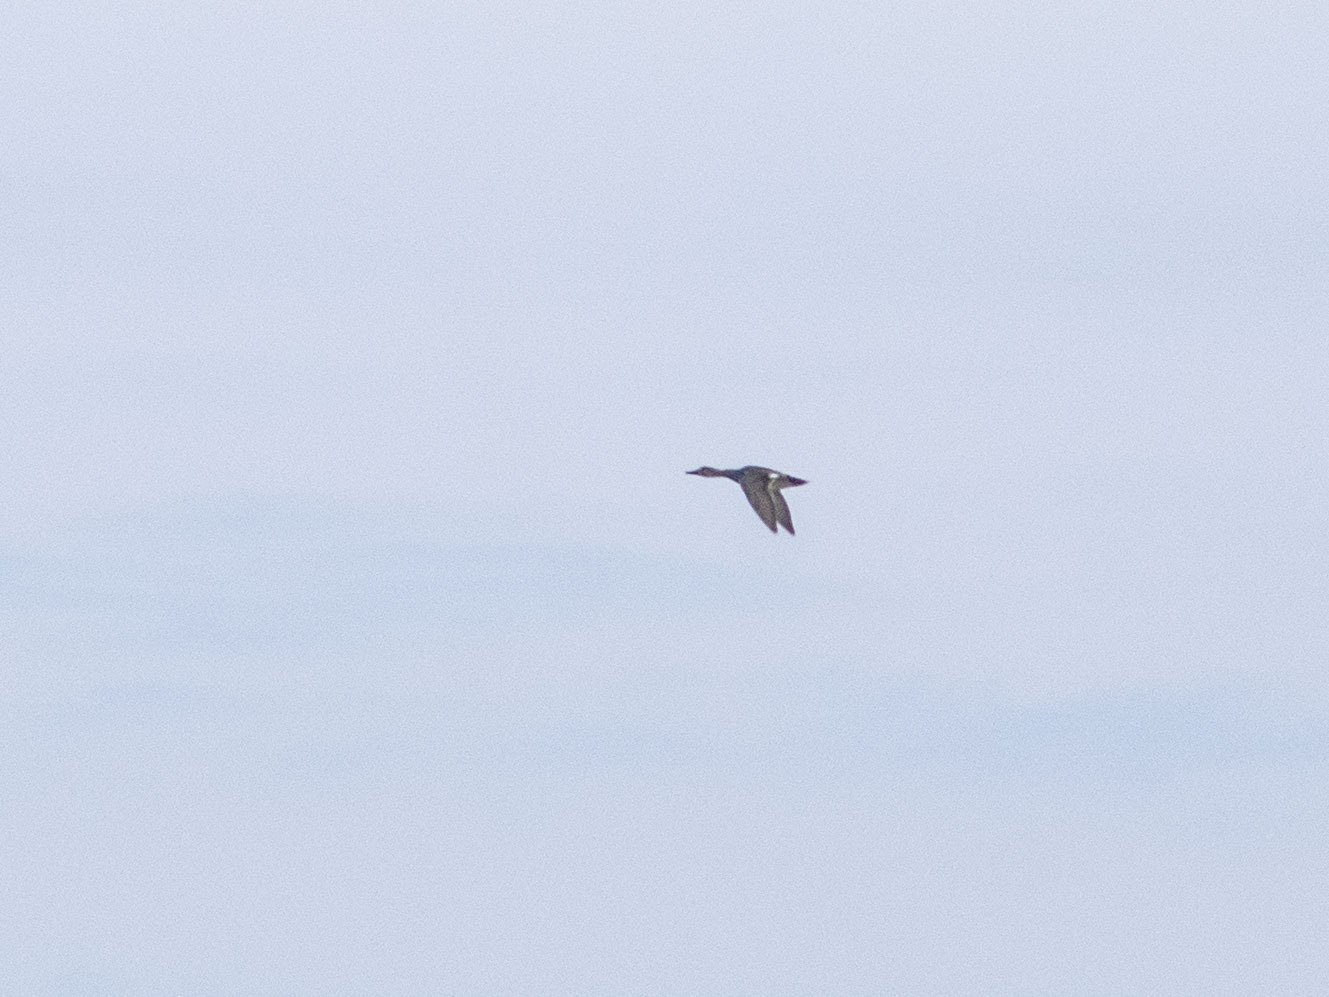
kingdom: Animalia
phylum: Chordata
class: Aves
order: Anseriformes
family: Anatidae
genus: Mareca
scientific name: Mareca strepera
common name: Gadwall
